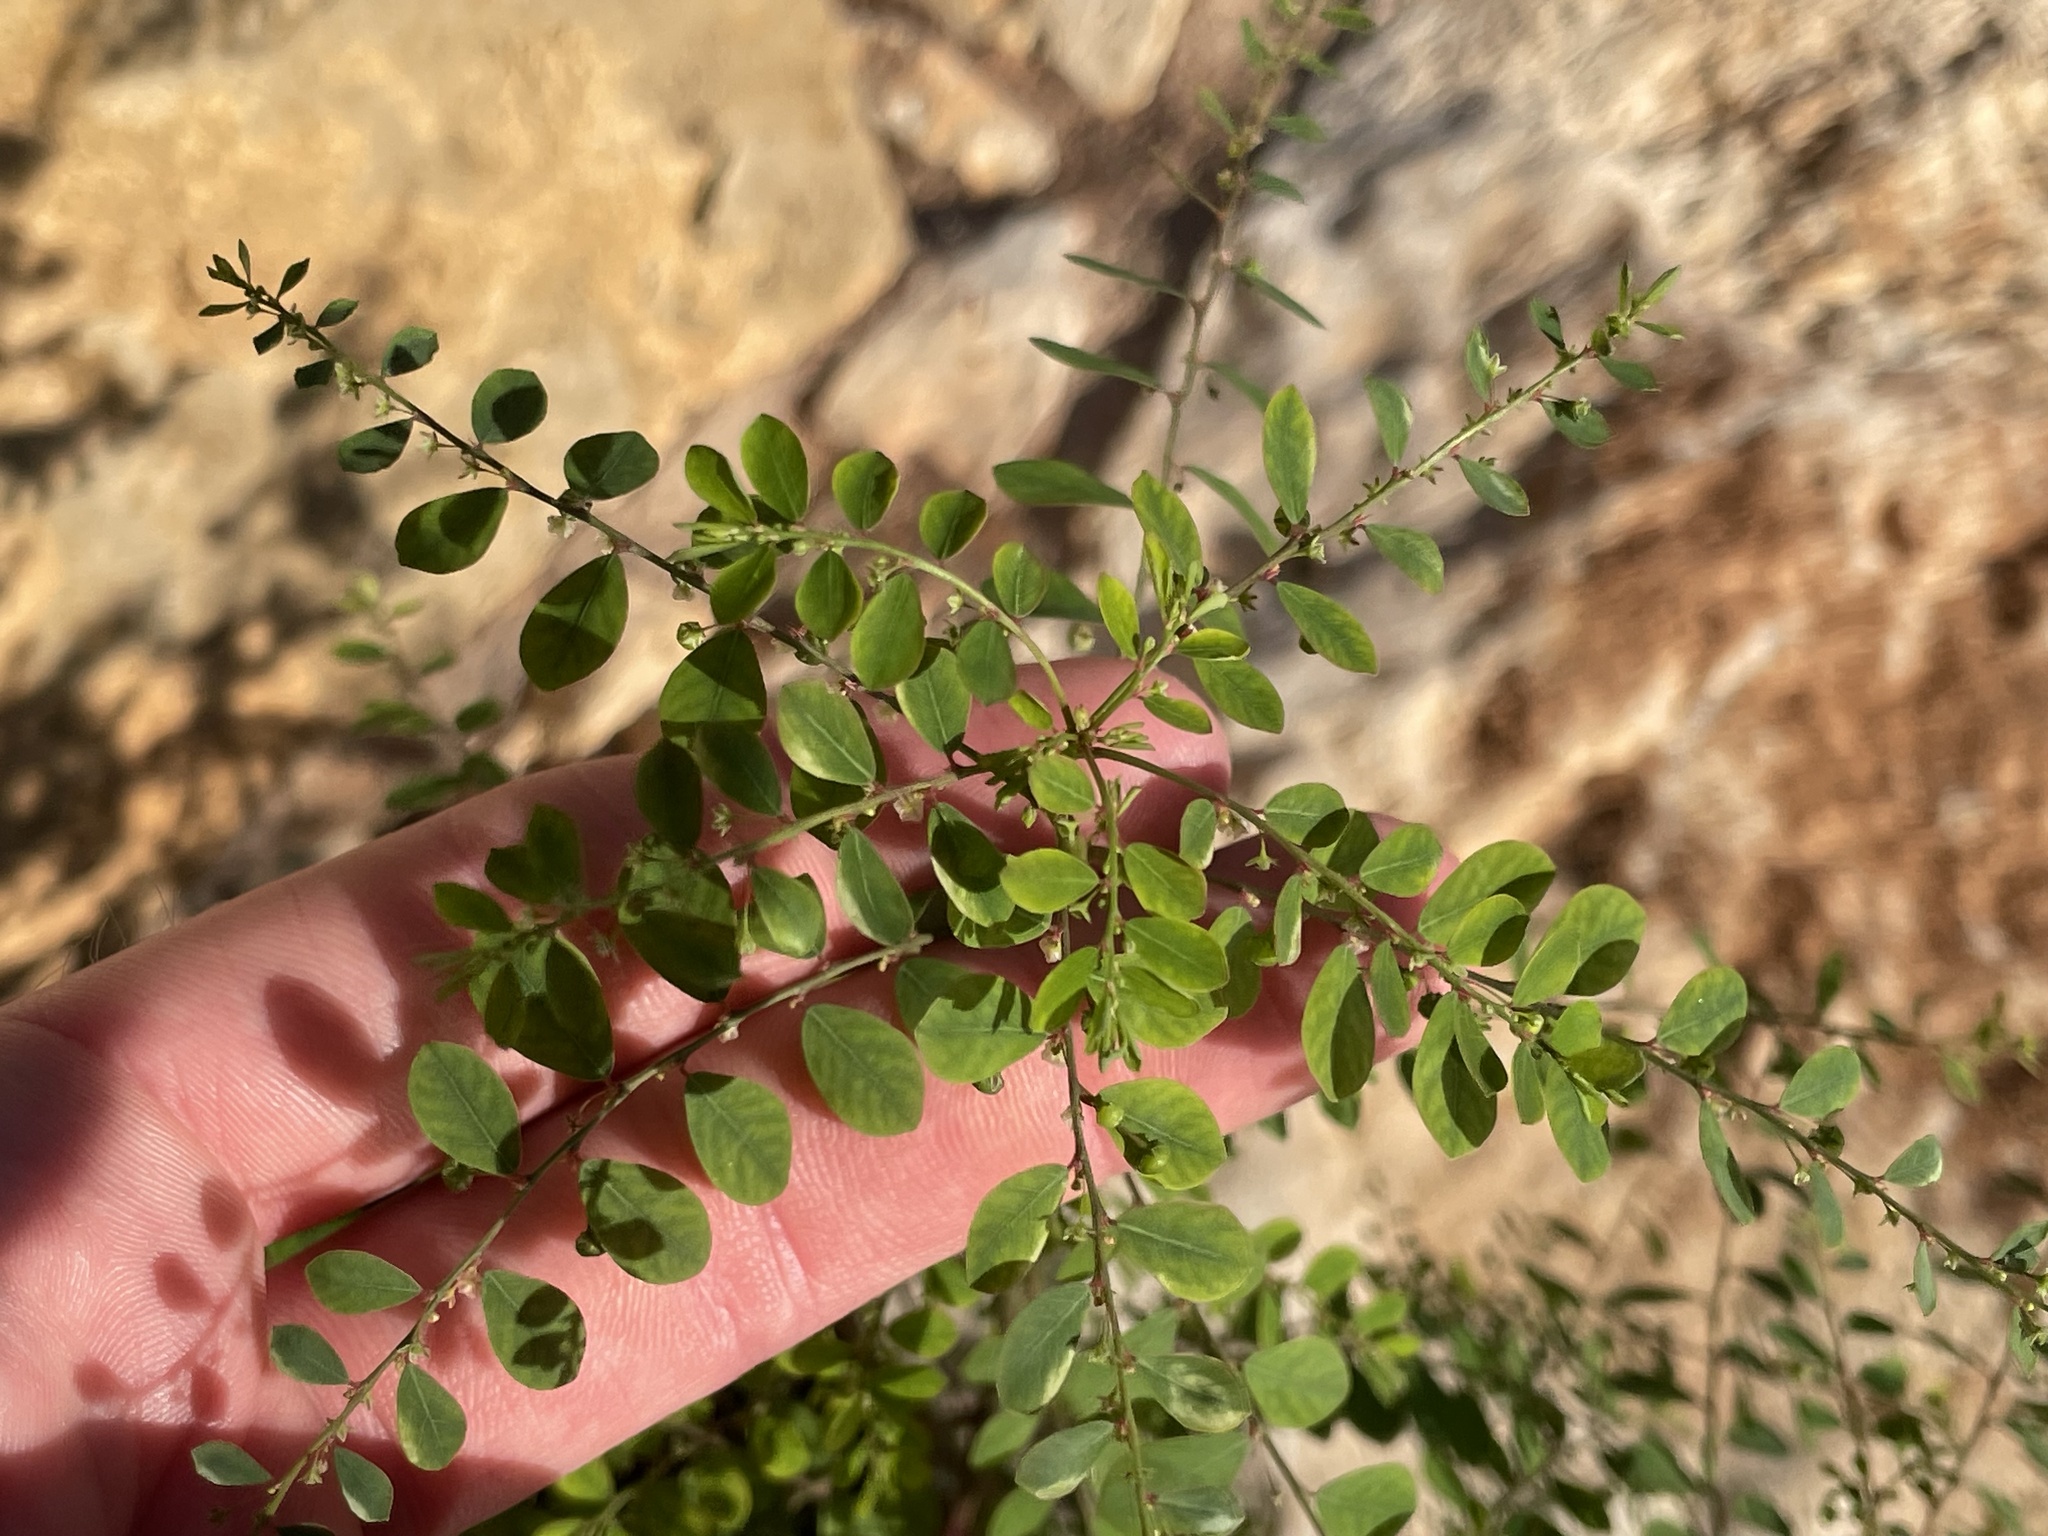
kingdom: Plantae
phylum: Tracheophyta
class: Magnoliopsida
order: Malpighiales
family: Phyllanthaceae
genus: Phyllanthus
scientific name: Phyllanthus tenellus
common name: Mascarene island leaf-flower
